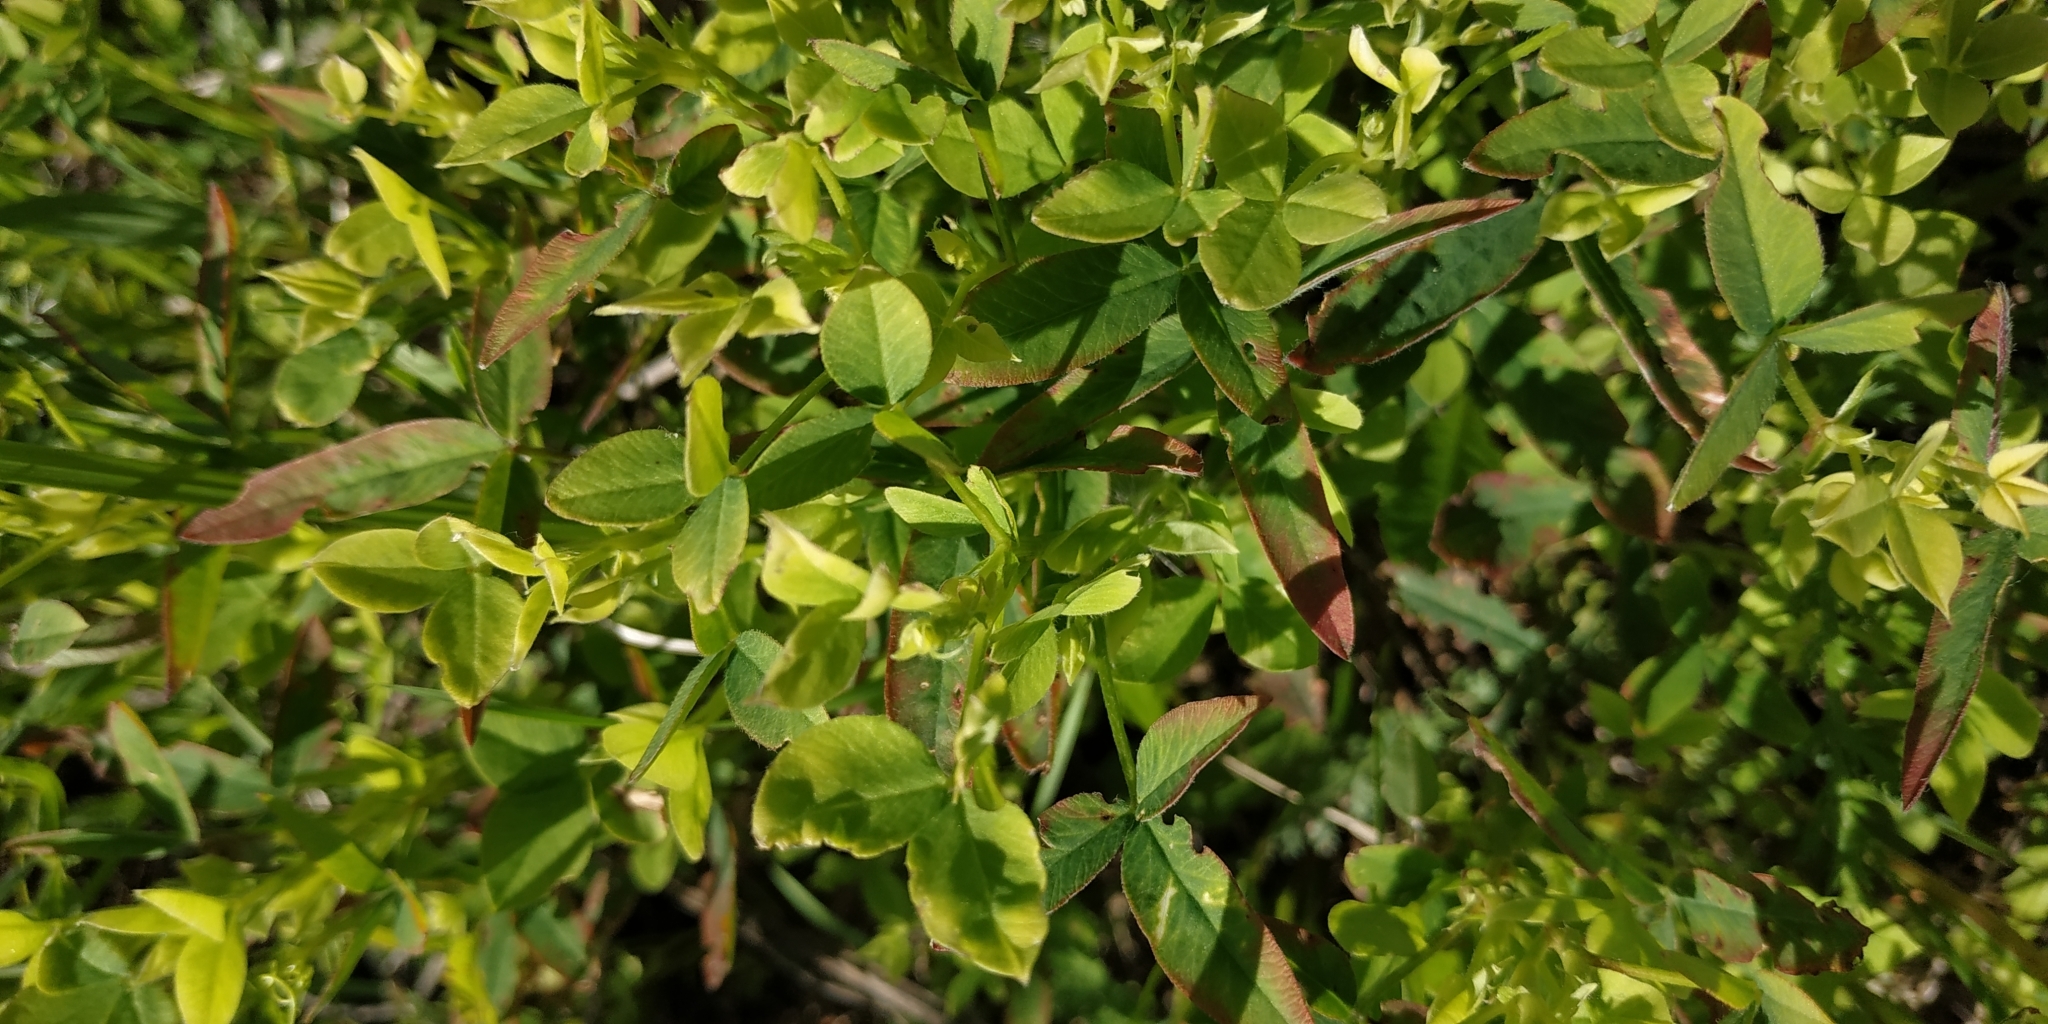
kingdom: Plantae
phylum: Tracheophyta
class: Magnoliopsida
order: Fabales
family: Fabaceae
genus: Trifolium
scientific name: Trifolium medium
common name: Zigzag clover
